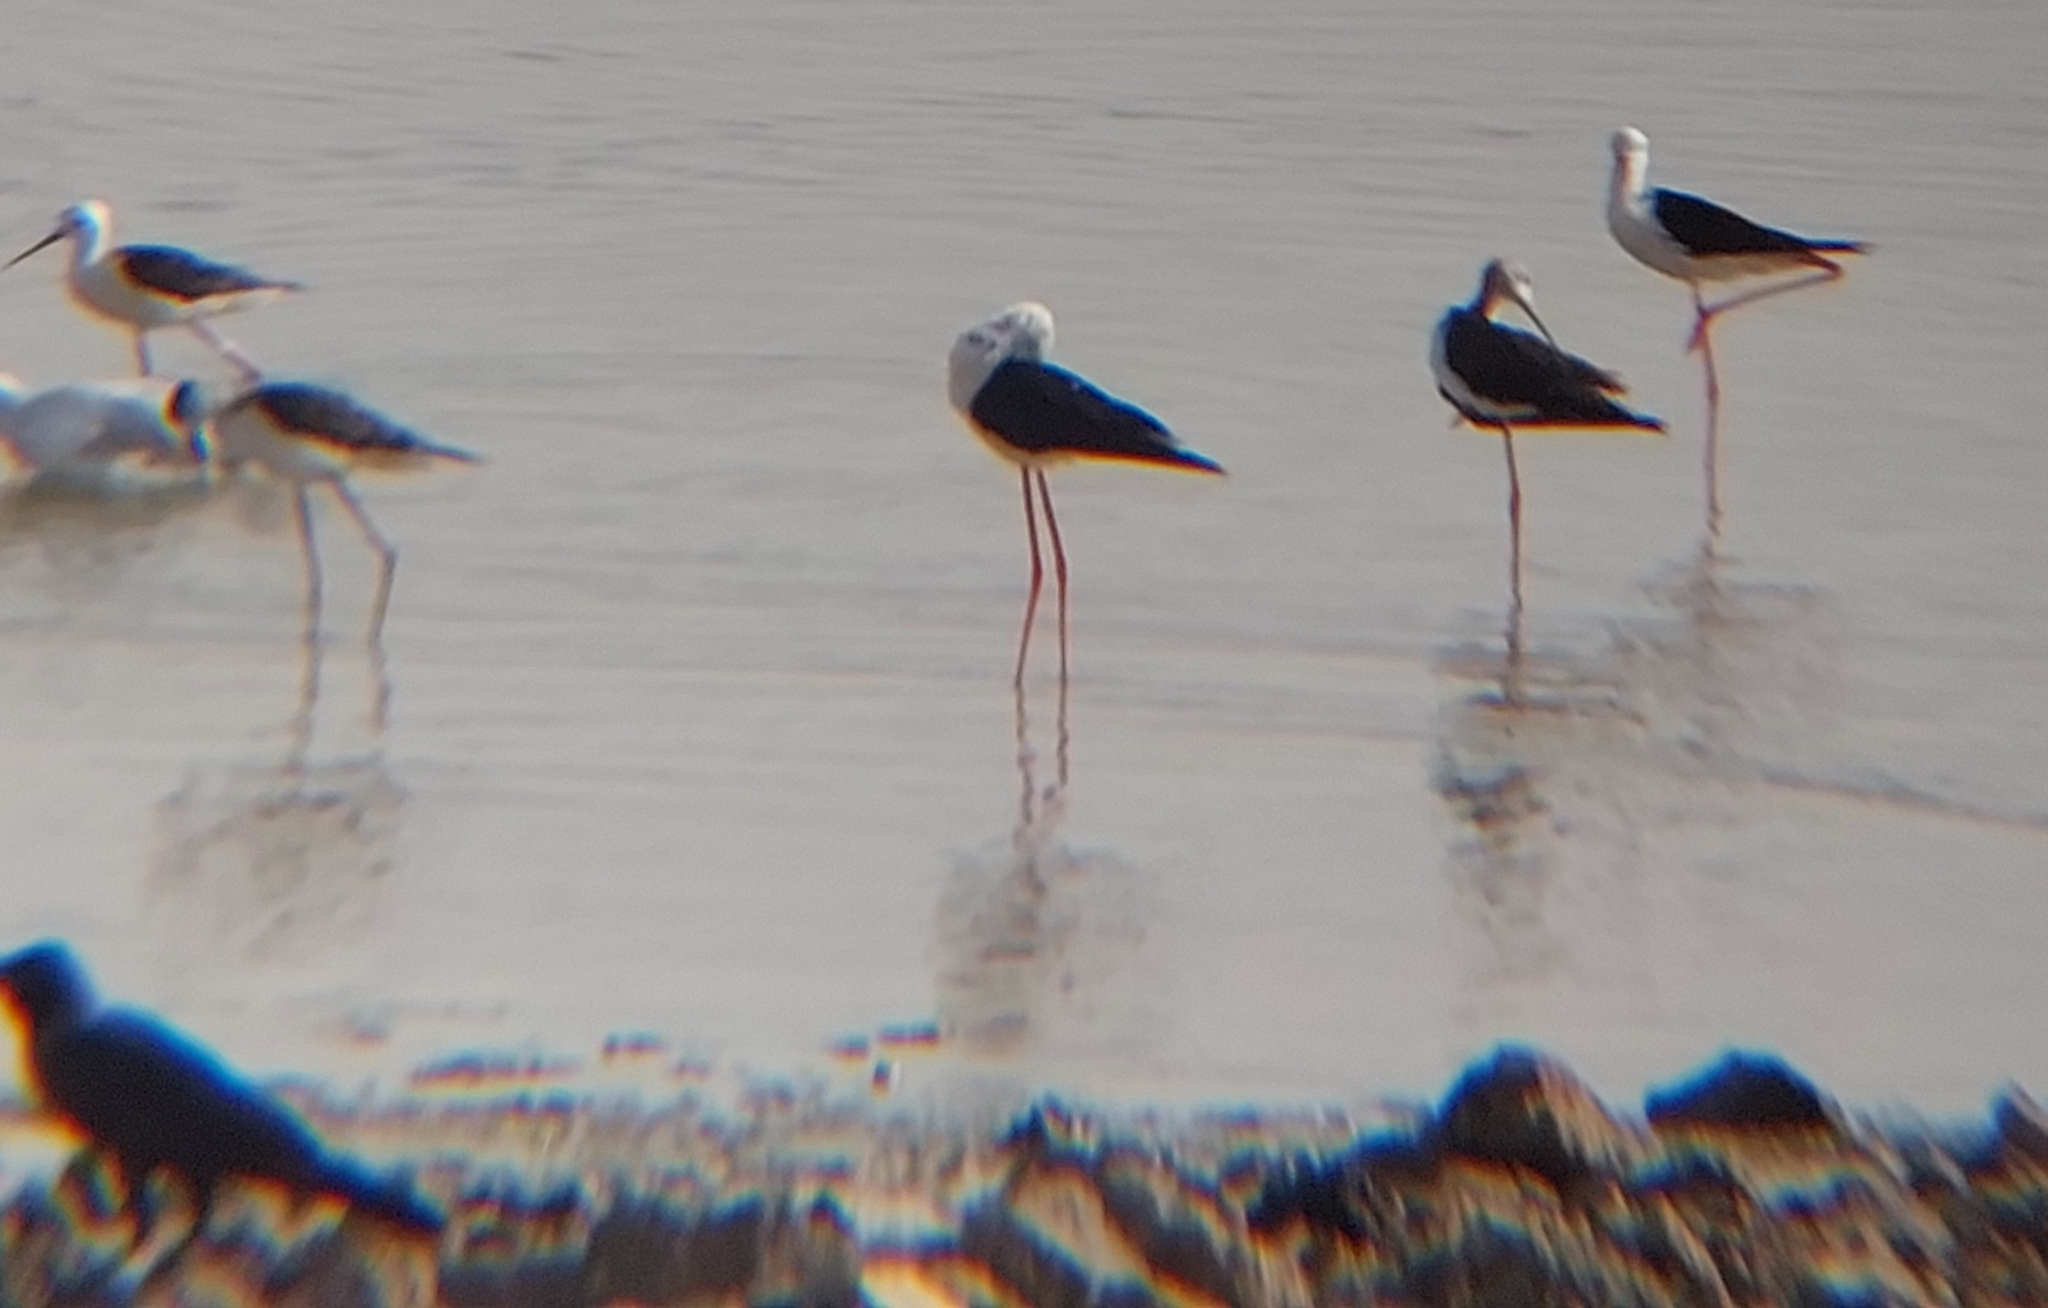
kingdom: Animalia
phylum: Chordata
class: Aves
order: Charadriiformes
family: Recurvirostridae
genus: Himantopus
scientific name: Himantopus himantopus
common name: Black-winged stilt
